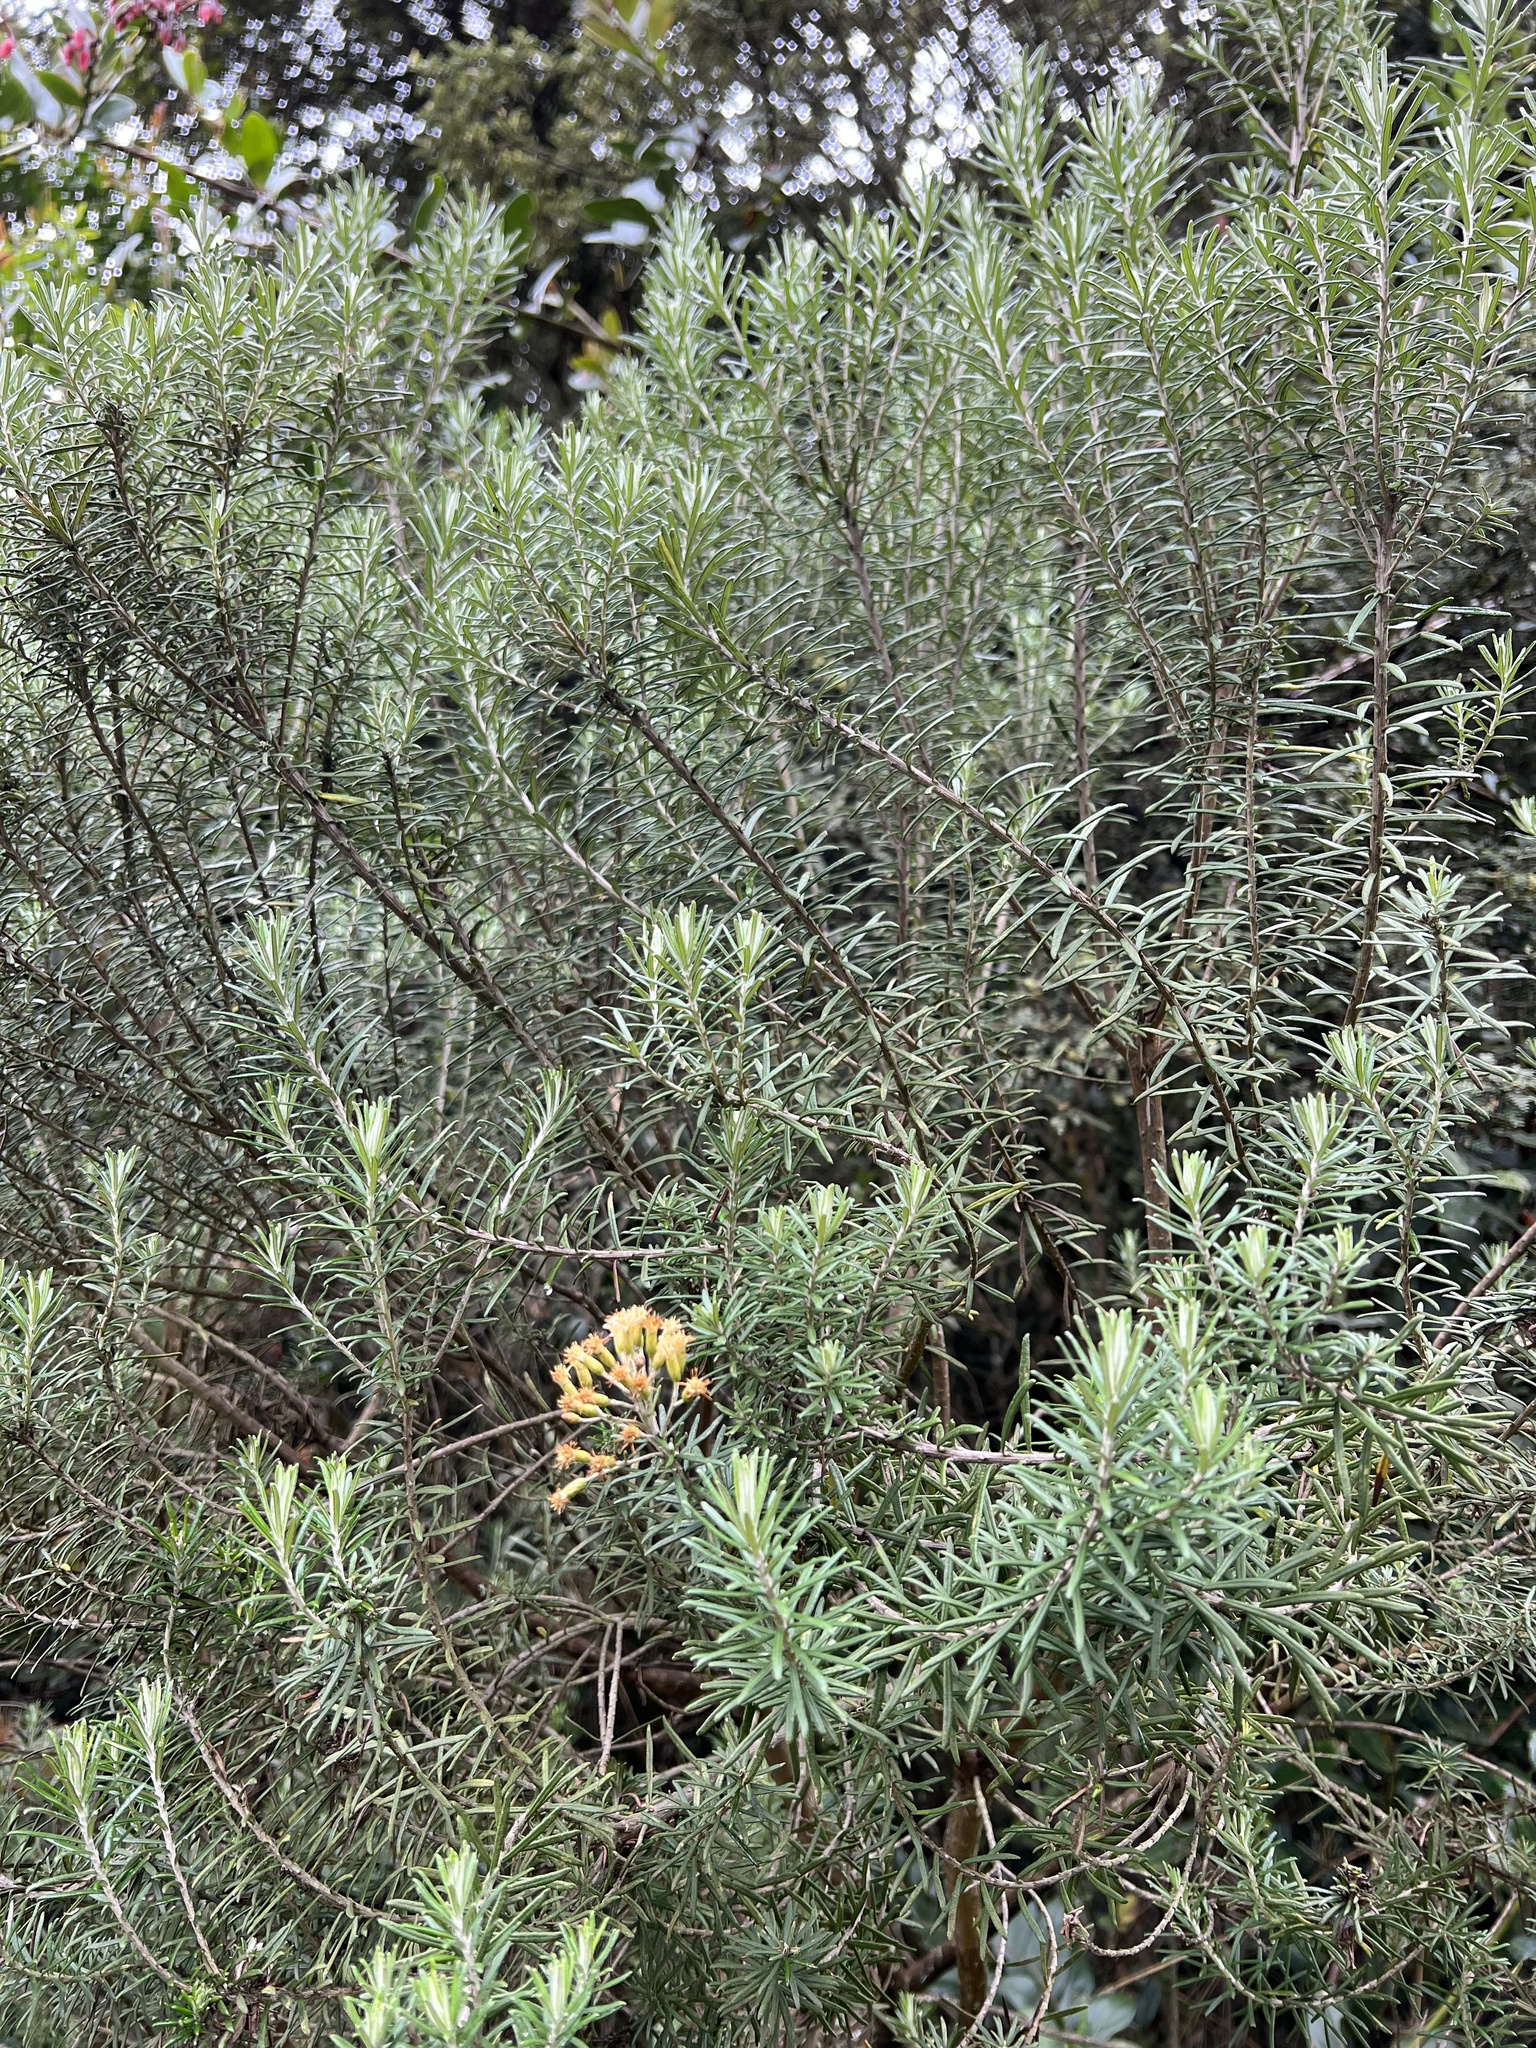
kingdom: Plantae
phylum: Tracheophyta
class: Magnoliopsida
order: Asterales
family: Asteraceae
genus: Linochilus
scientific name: Linochilus rosmarinifolius
